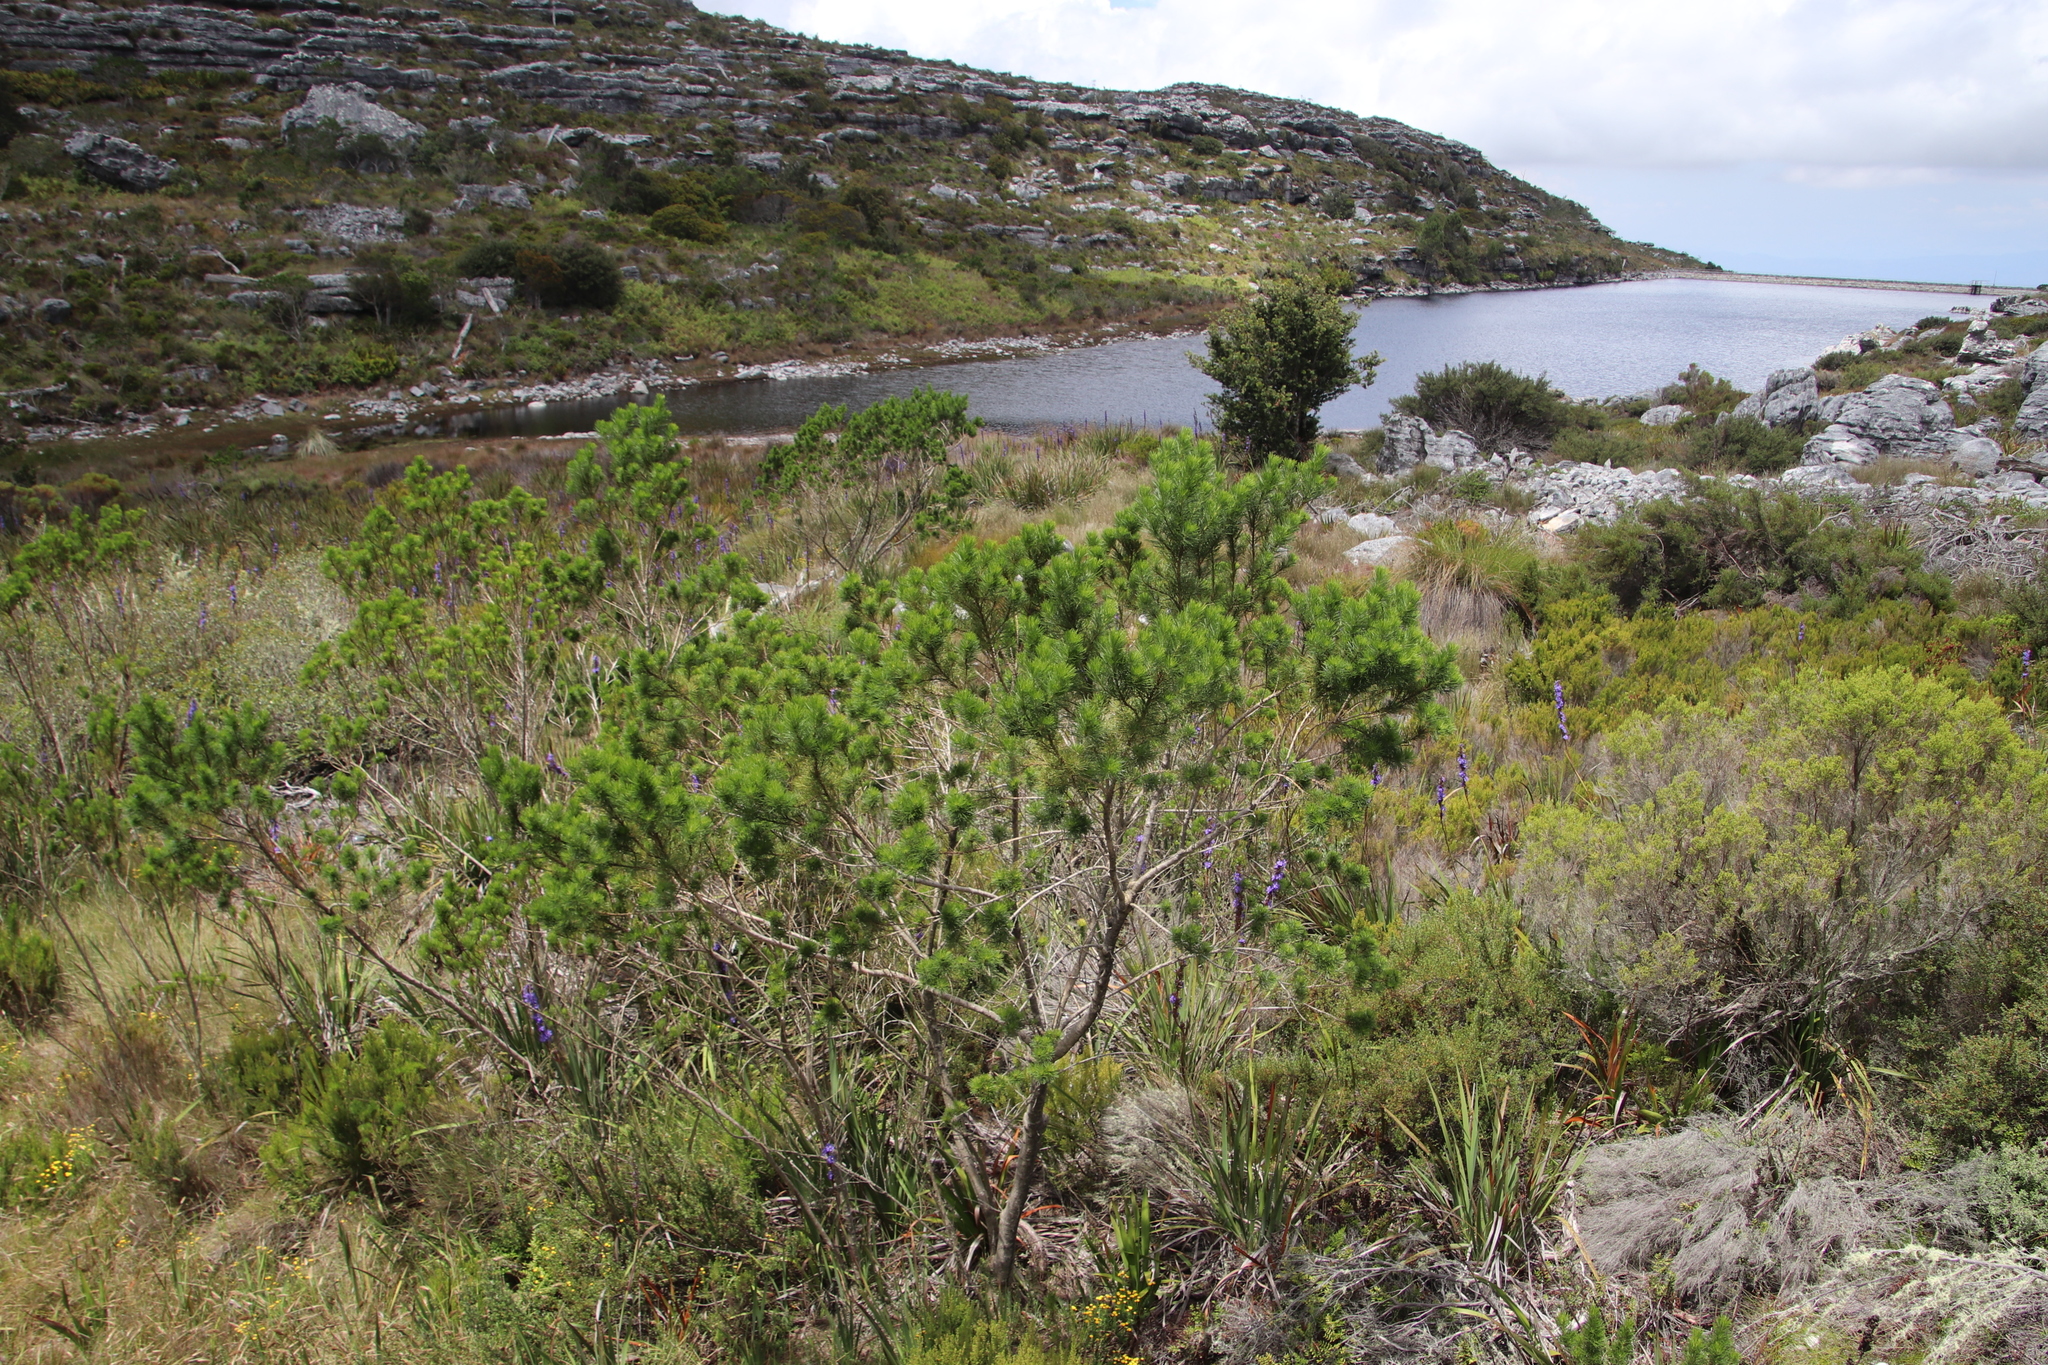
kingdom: Plantae
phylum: Tracheophyta
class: Magnoliopsida
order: Fabales
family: Fabaceae
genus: Psoralea
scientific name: Psoralea pinnata
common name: African scurfpea
